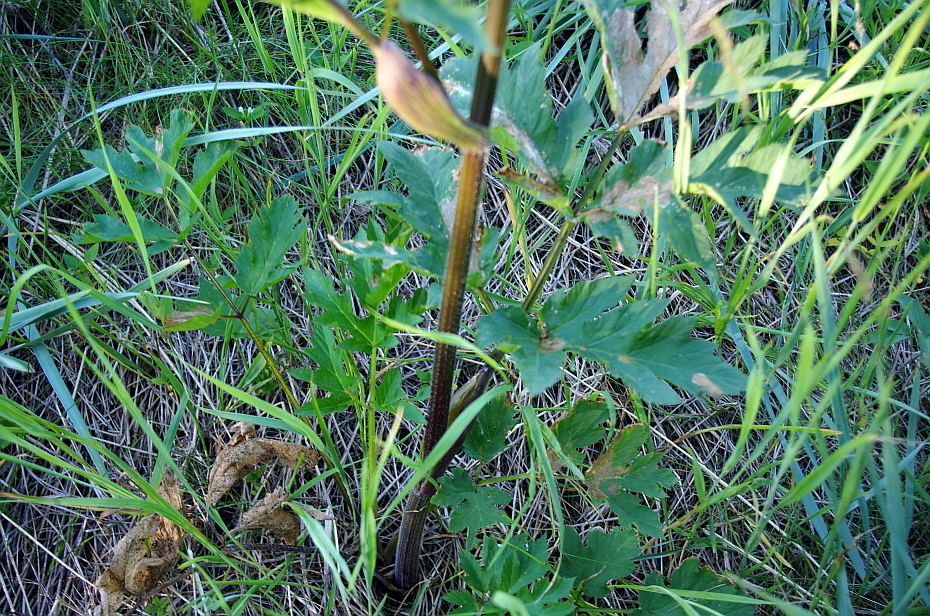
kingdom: Plantae
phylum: Tracheophyta
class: Magnoliopsida
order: Apiales
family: Apiaceae
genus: Heracleum
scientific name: Heracleum sphondylium
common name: Hogweed
